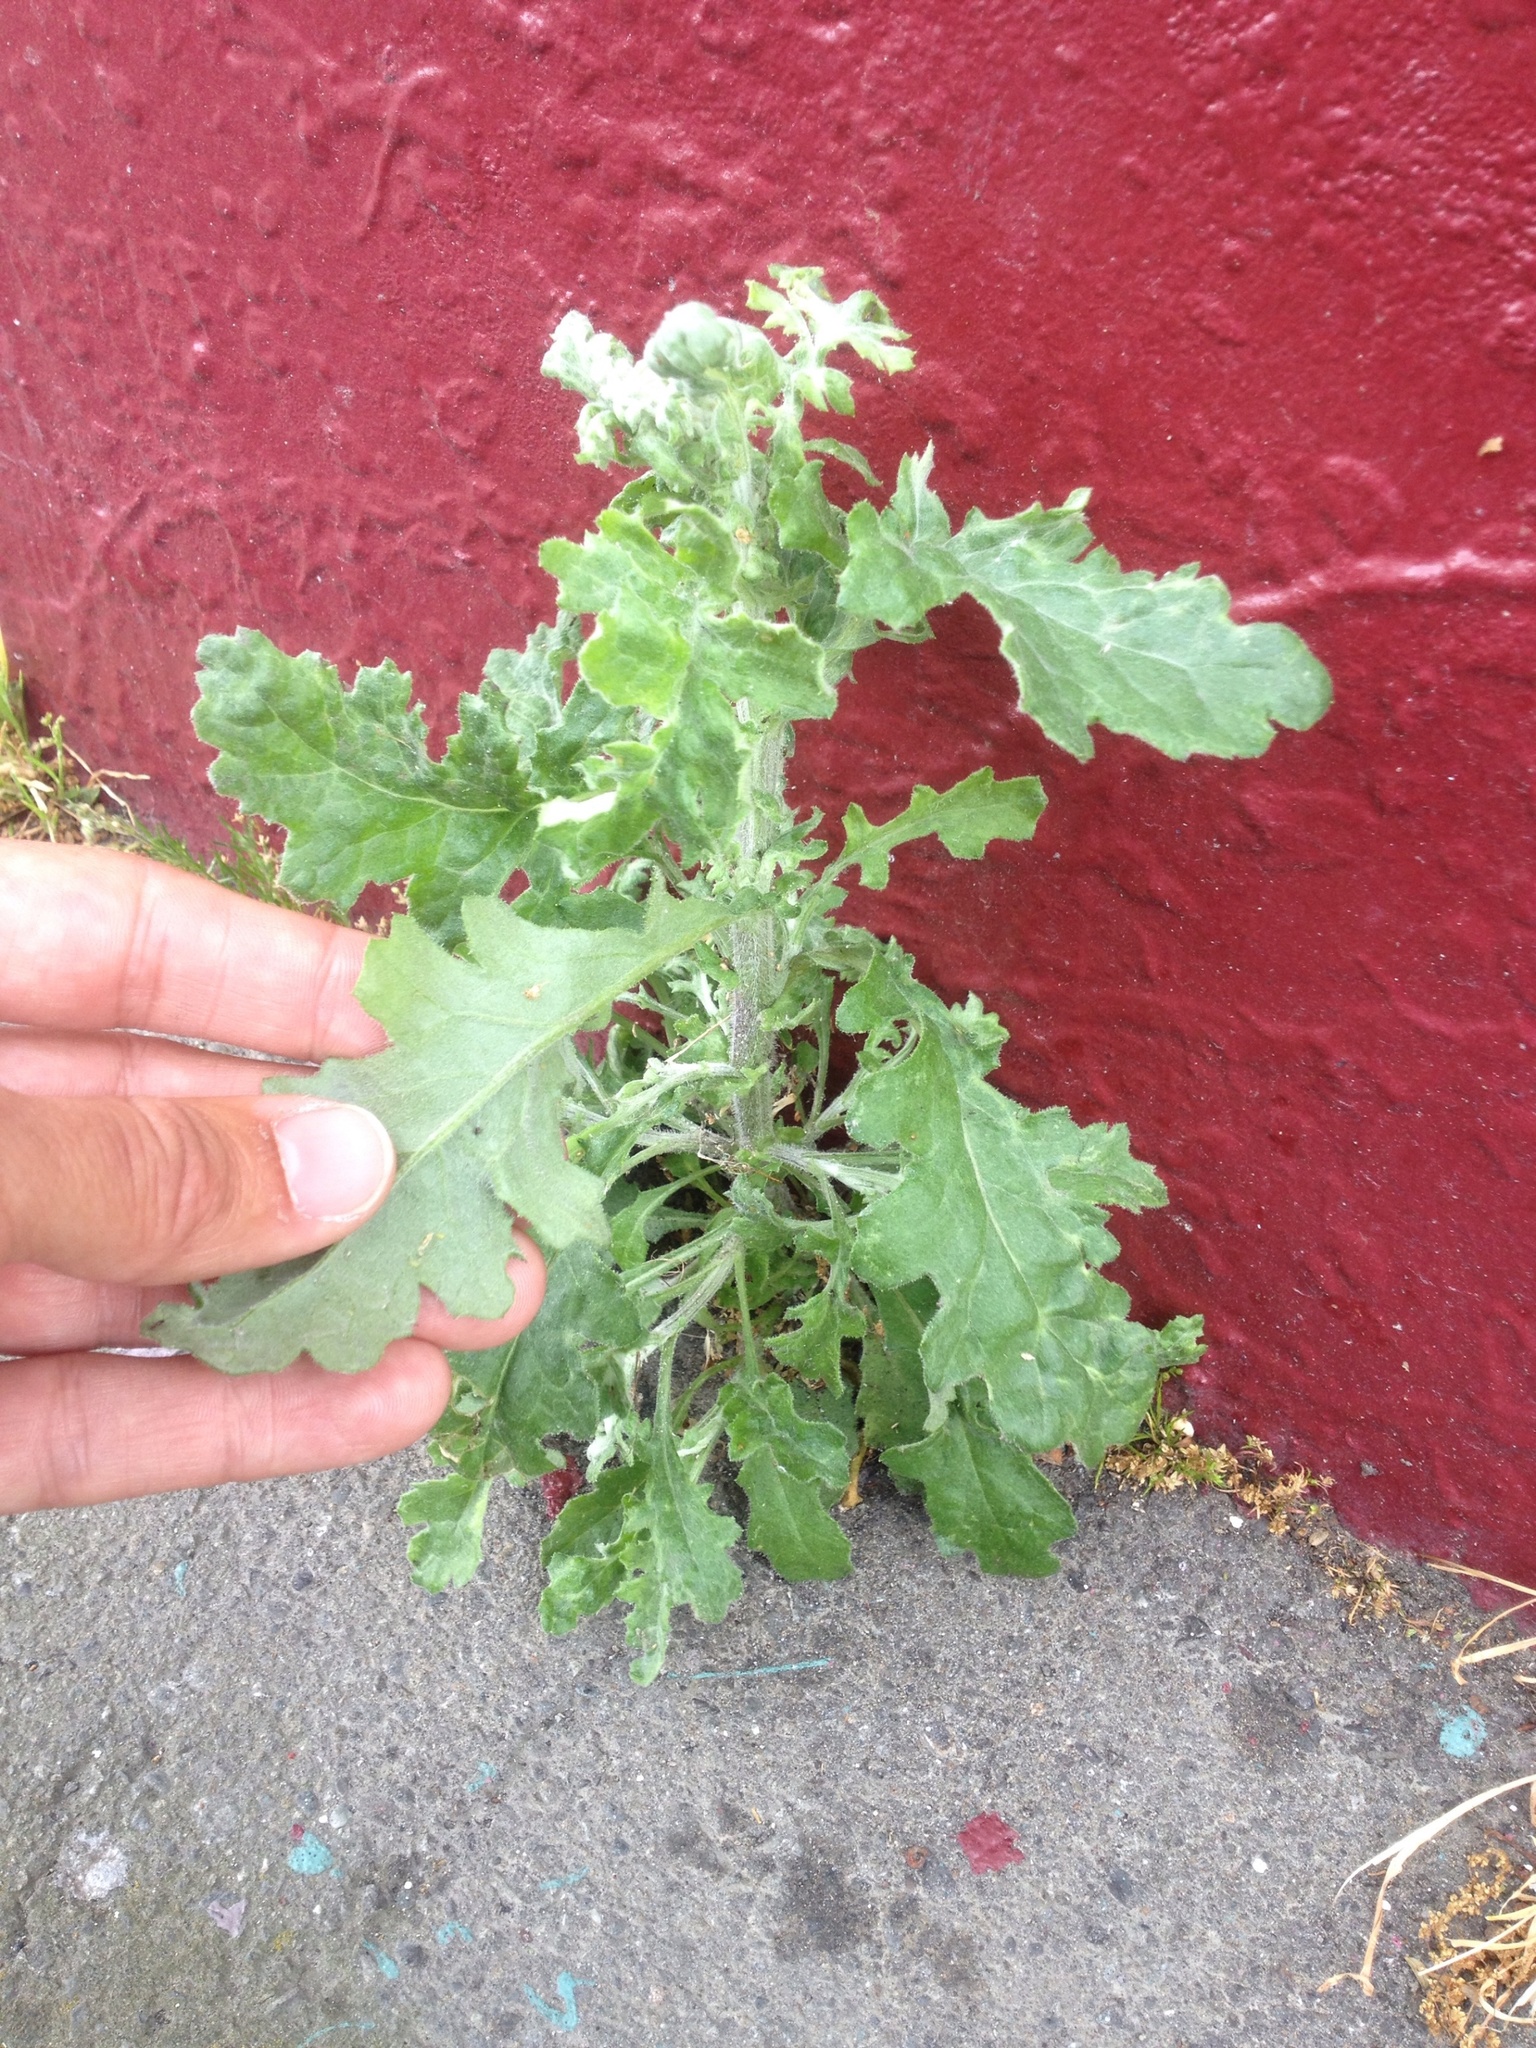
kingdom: Plantae
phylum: Tracheophyta
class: Magnoliopsida
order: Asterales
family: Asteraceae
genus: Senecio
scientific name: Senecio glomeratus
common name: Cutleaf burnweed
